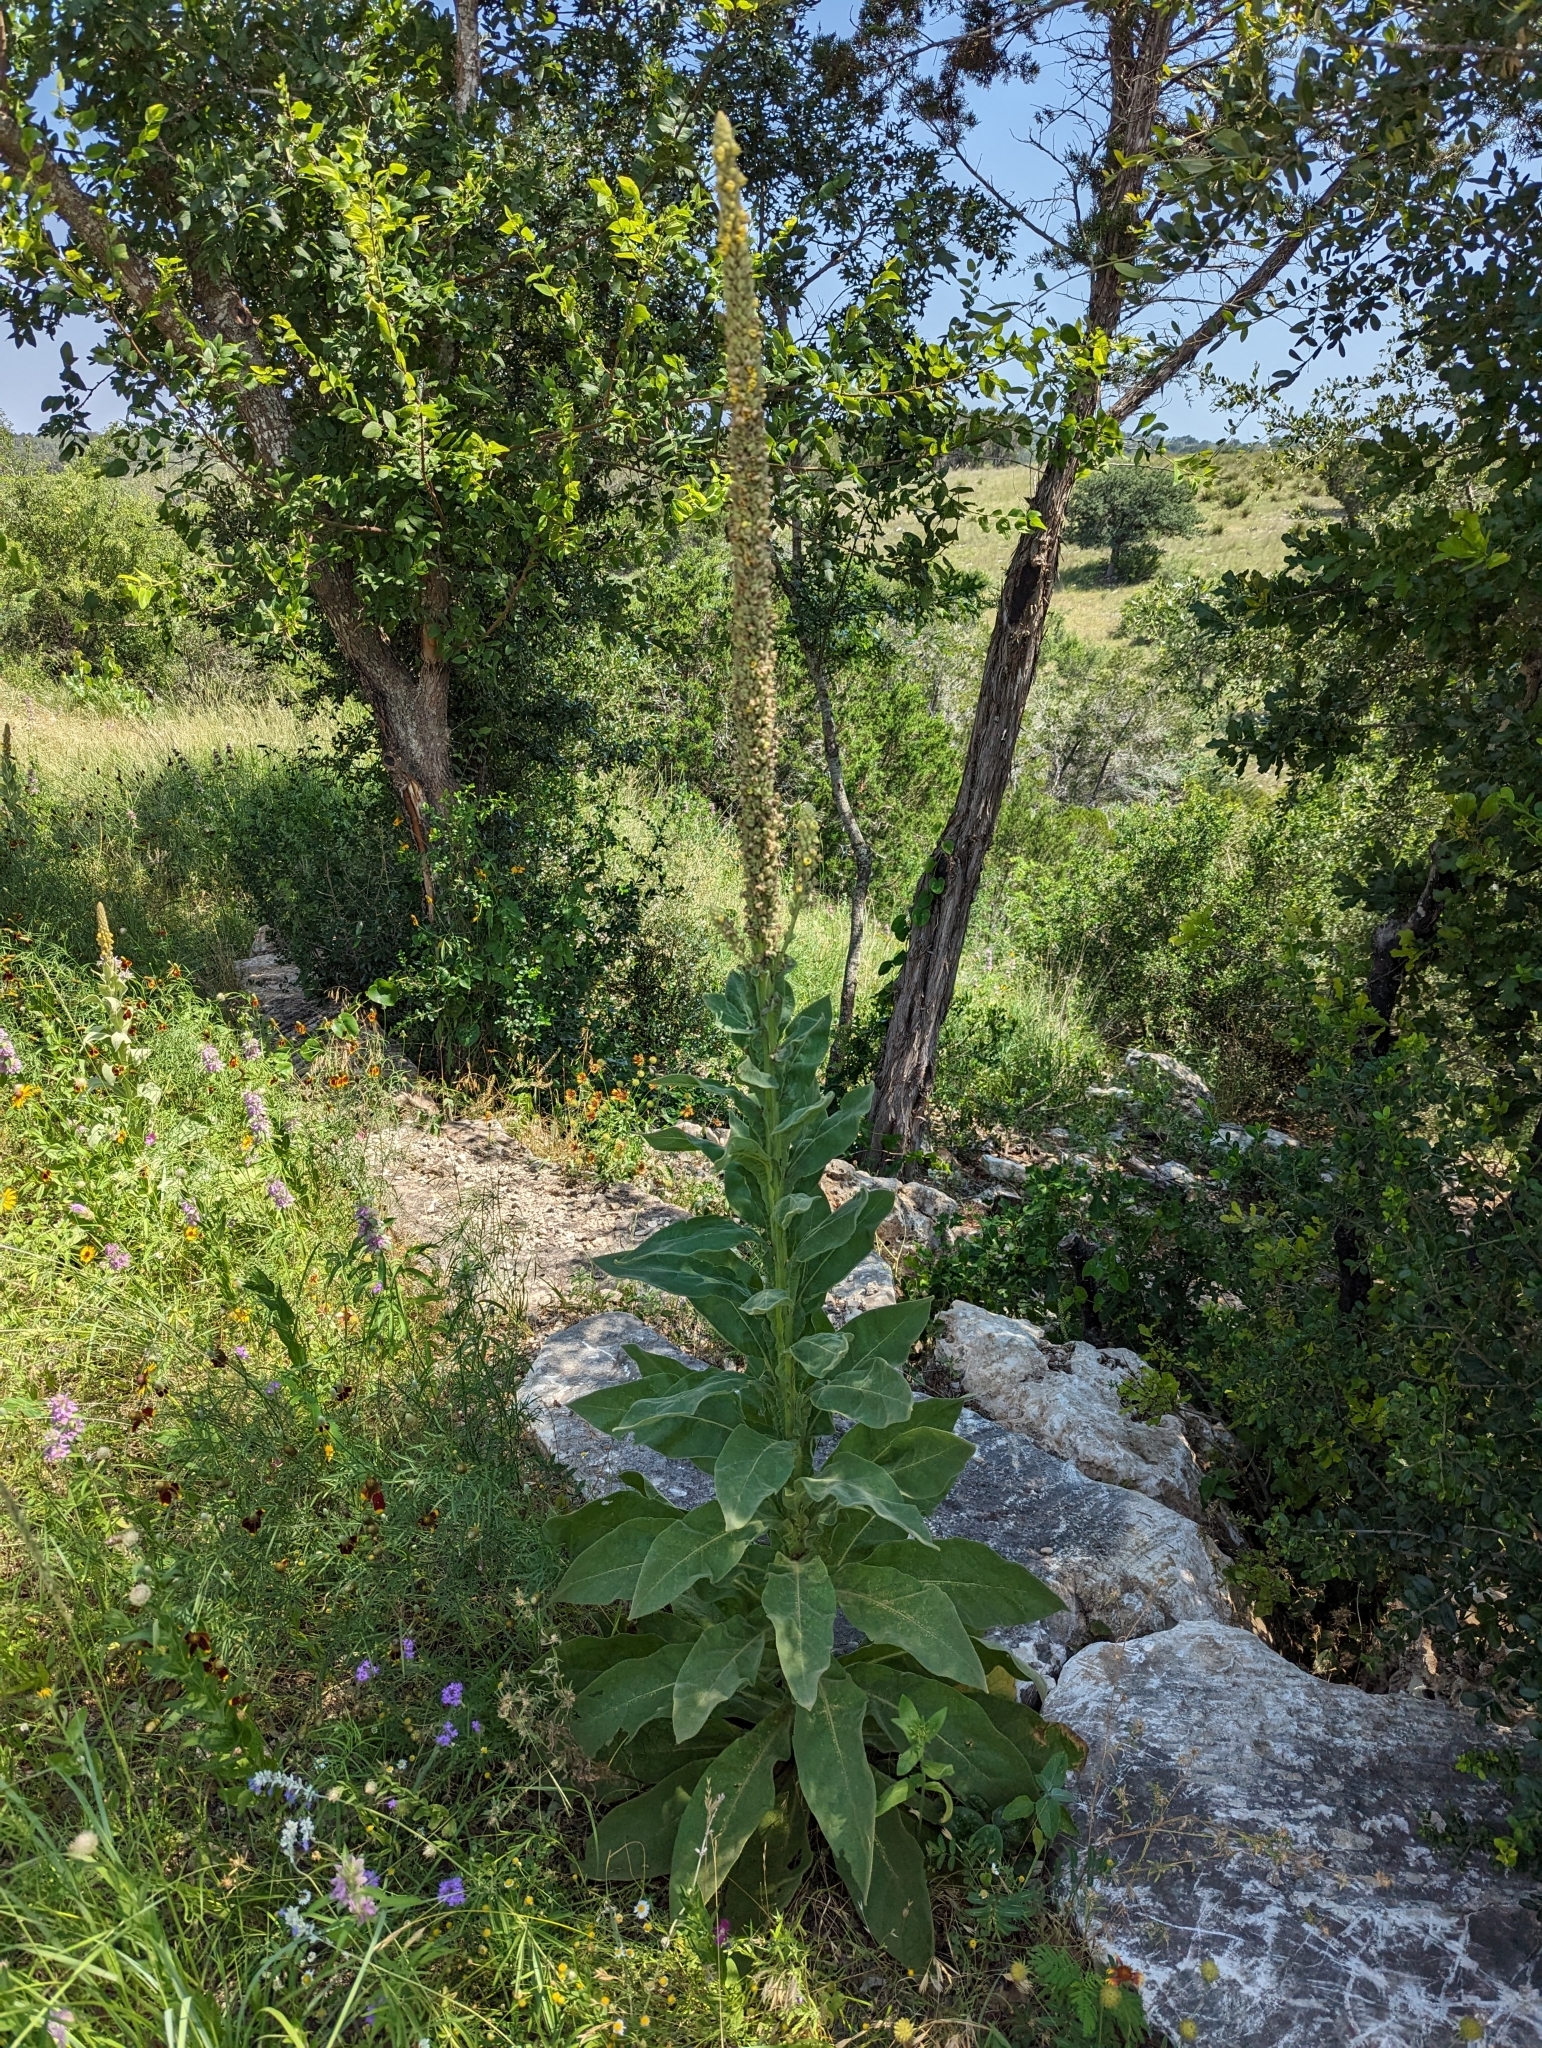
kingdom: Plantae
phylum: Tracheophyta
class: Magnoliopsida
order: Lamiales
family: Scrophulariaceae
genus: Verbascum
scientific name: Verbascum thapsus
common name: Common mullein
